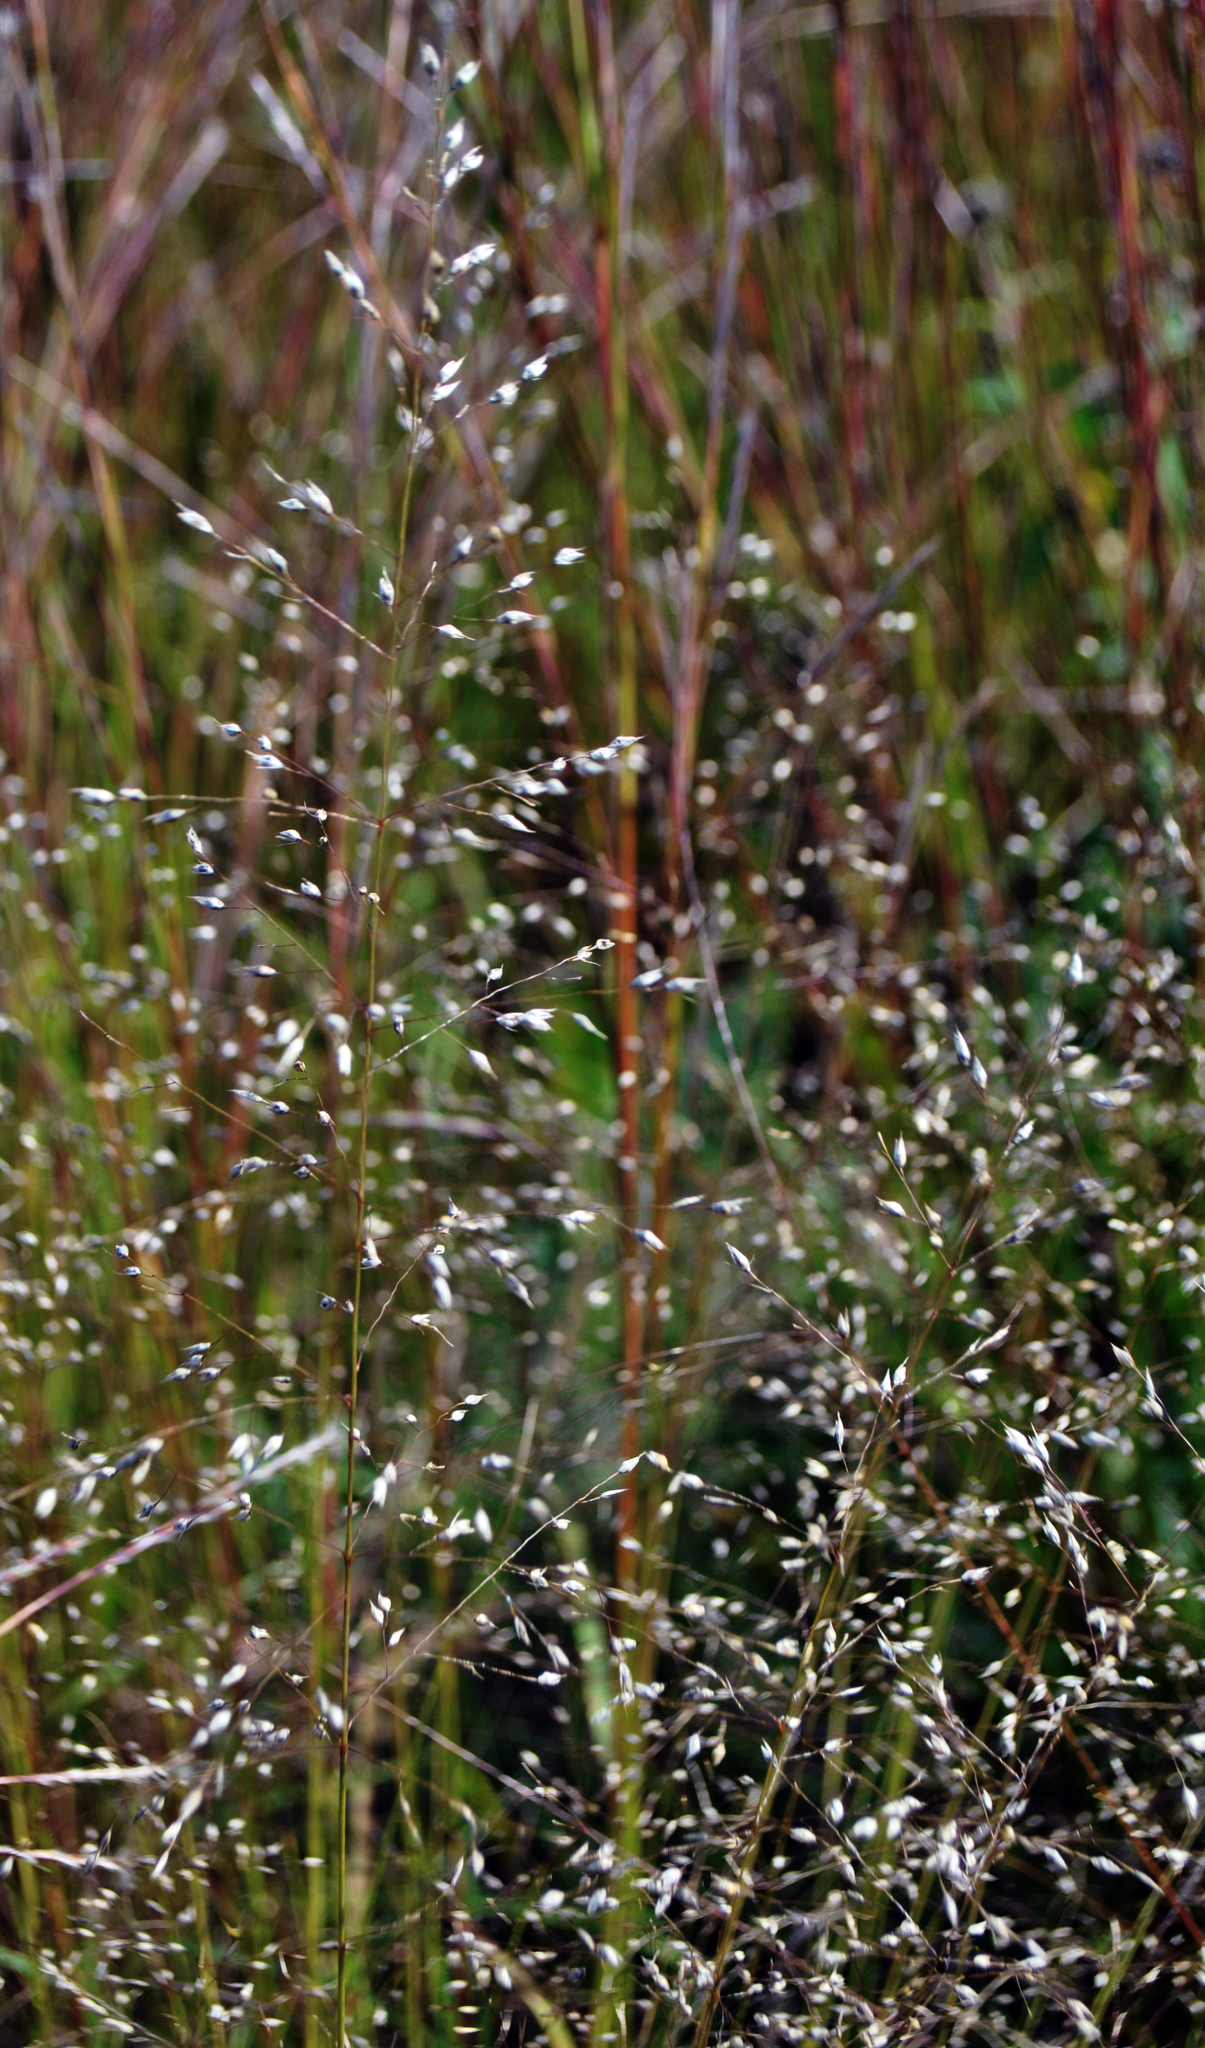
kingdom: Plantae
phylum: Tracheophyta
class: Liliopsida
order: Poales
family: Poaceae
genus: Sporobolus
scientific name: Sporobolus heterolepis
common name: Prairie dropseed
